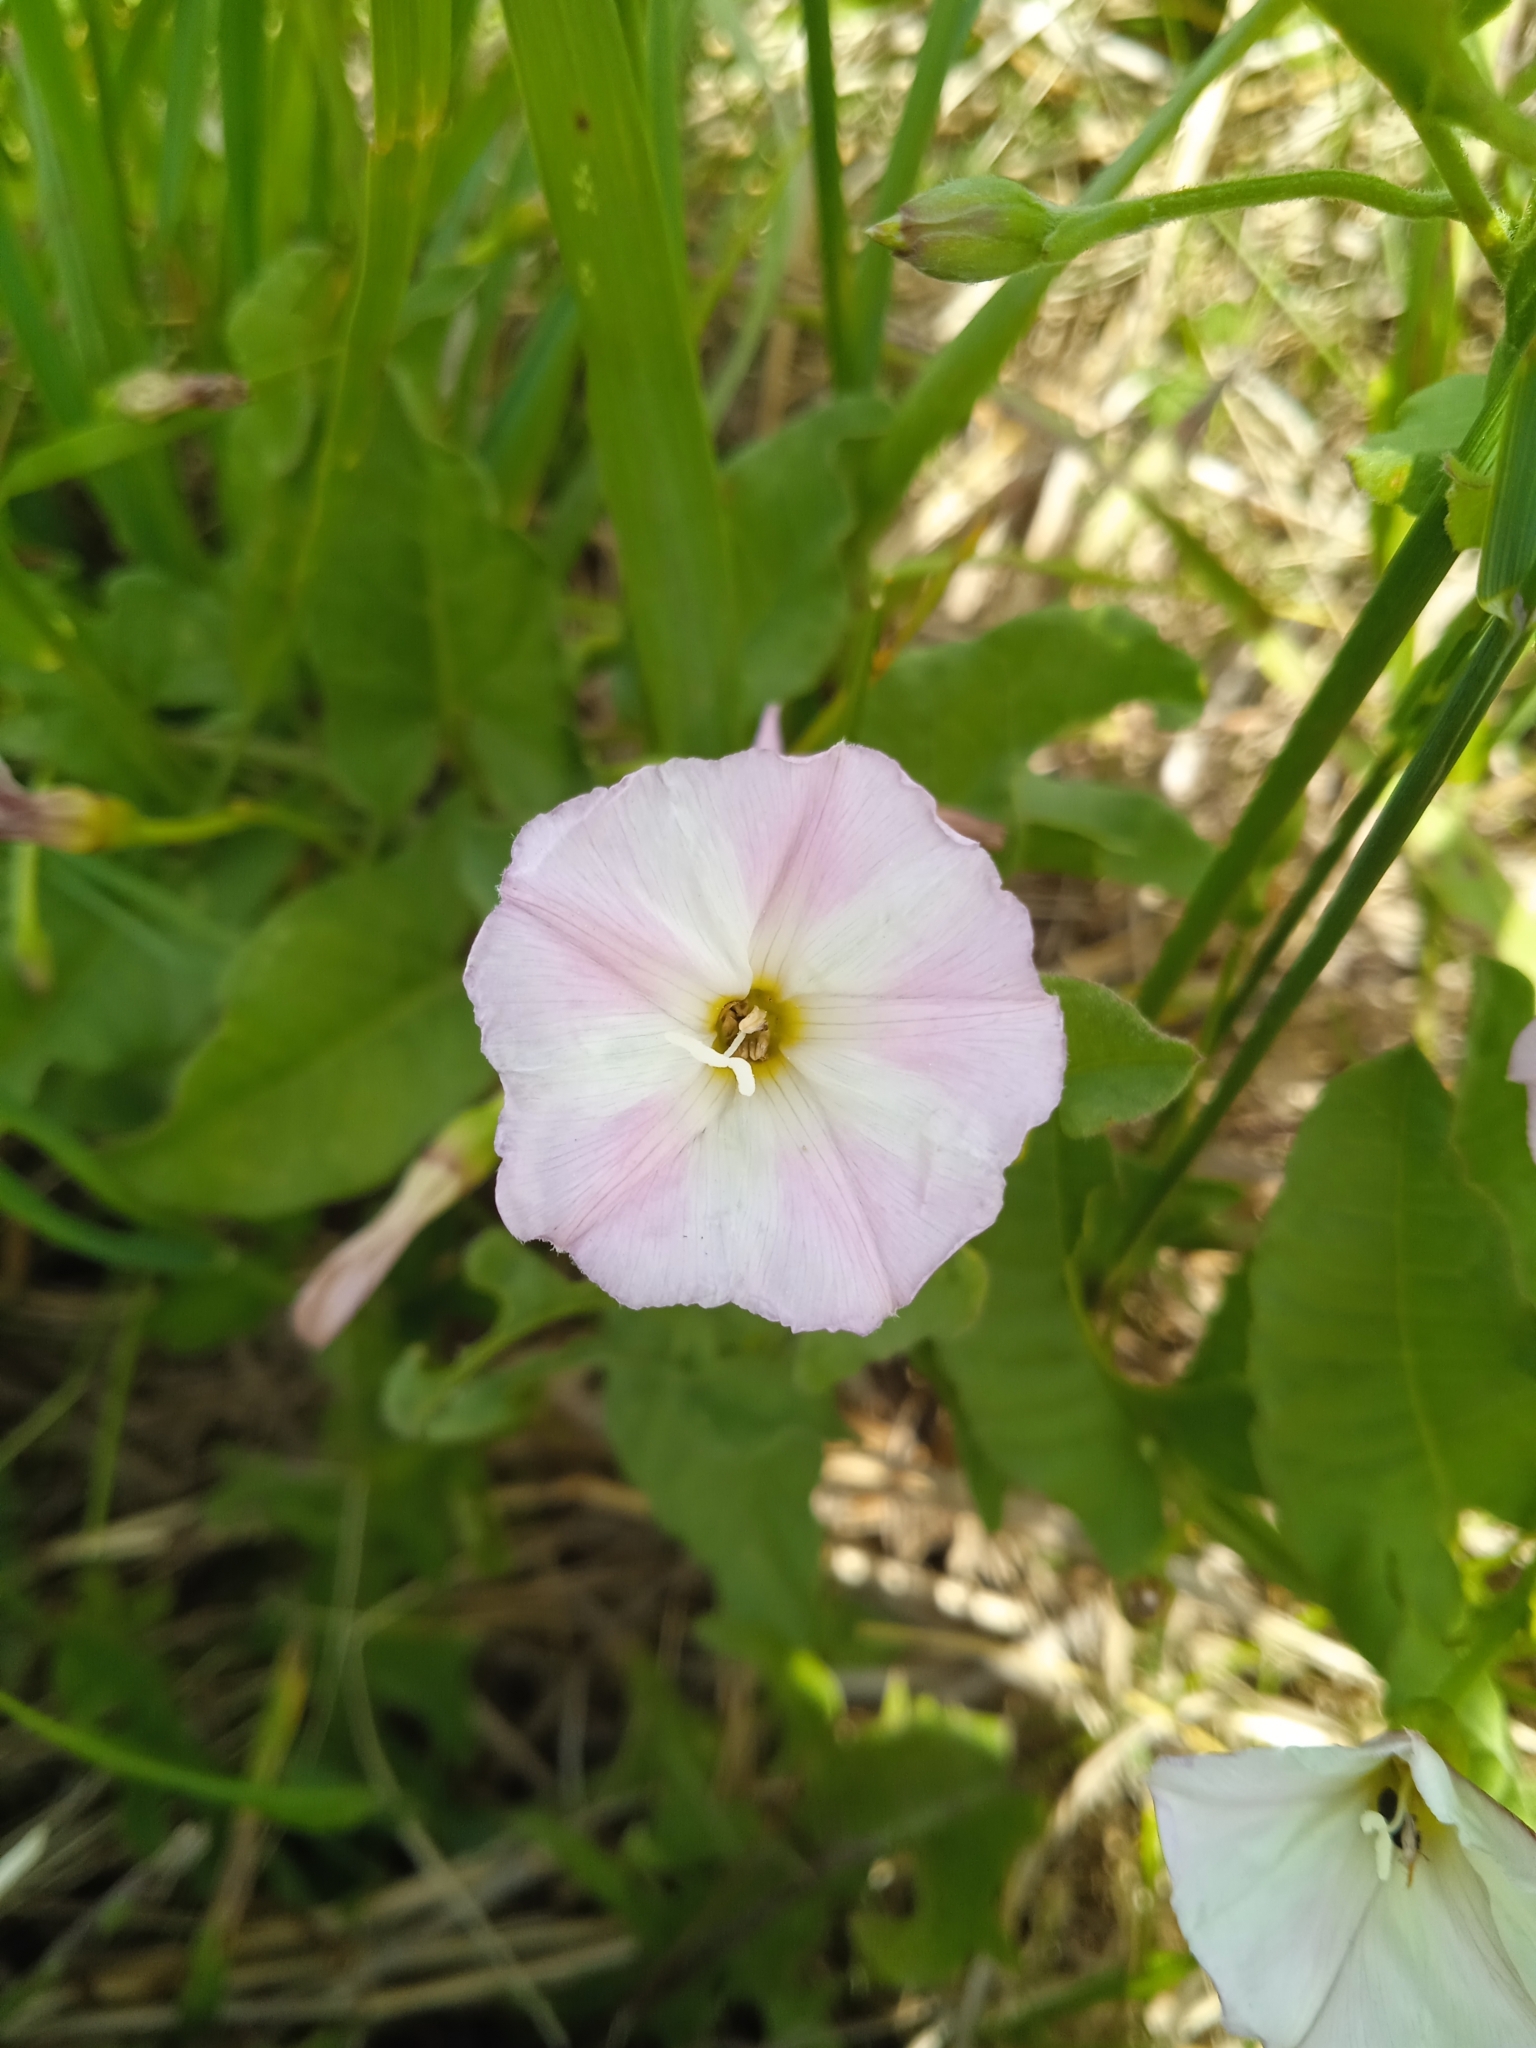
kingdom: Plantae
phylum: Tracheophyta
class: Magnoliopsida
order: Solanales
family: Convolvulaceae
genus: Convolvulus
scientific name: Convolvulus arvensis
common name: Field bindweed
